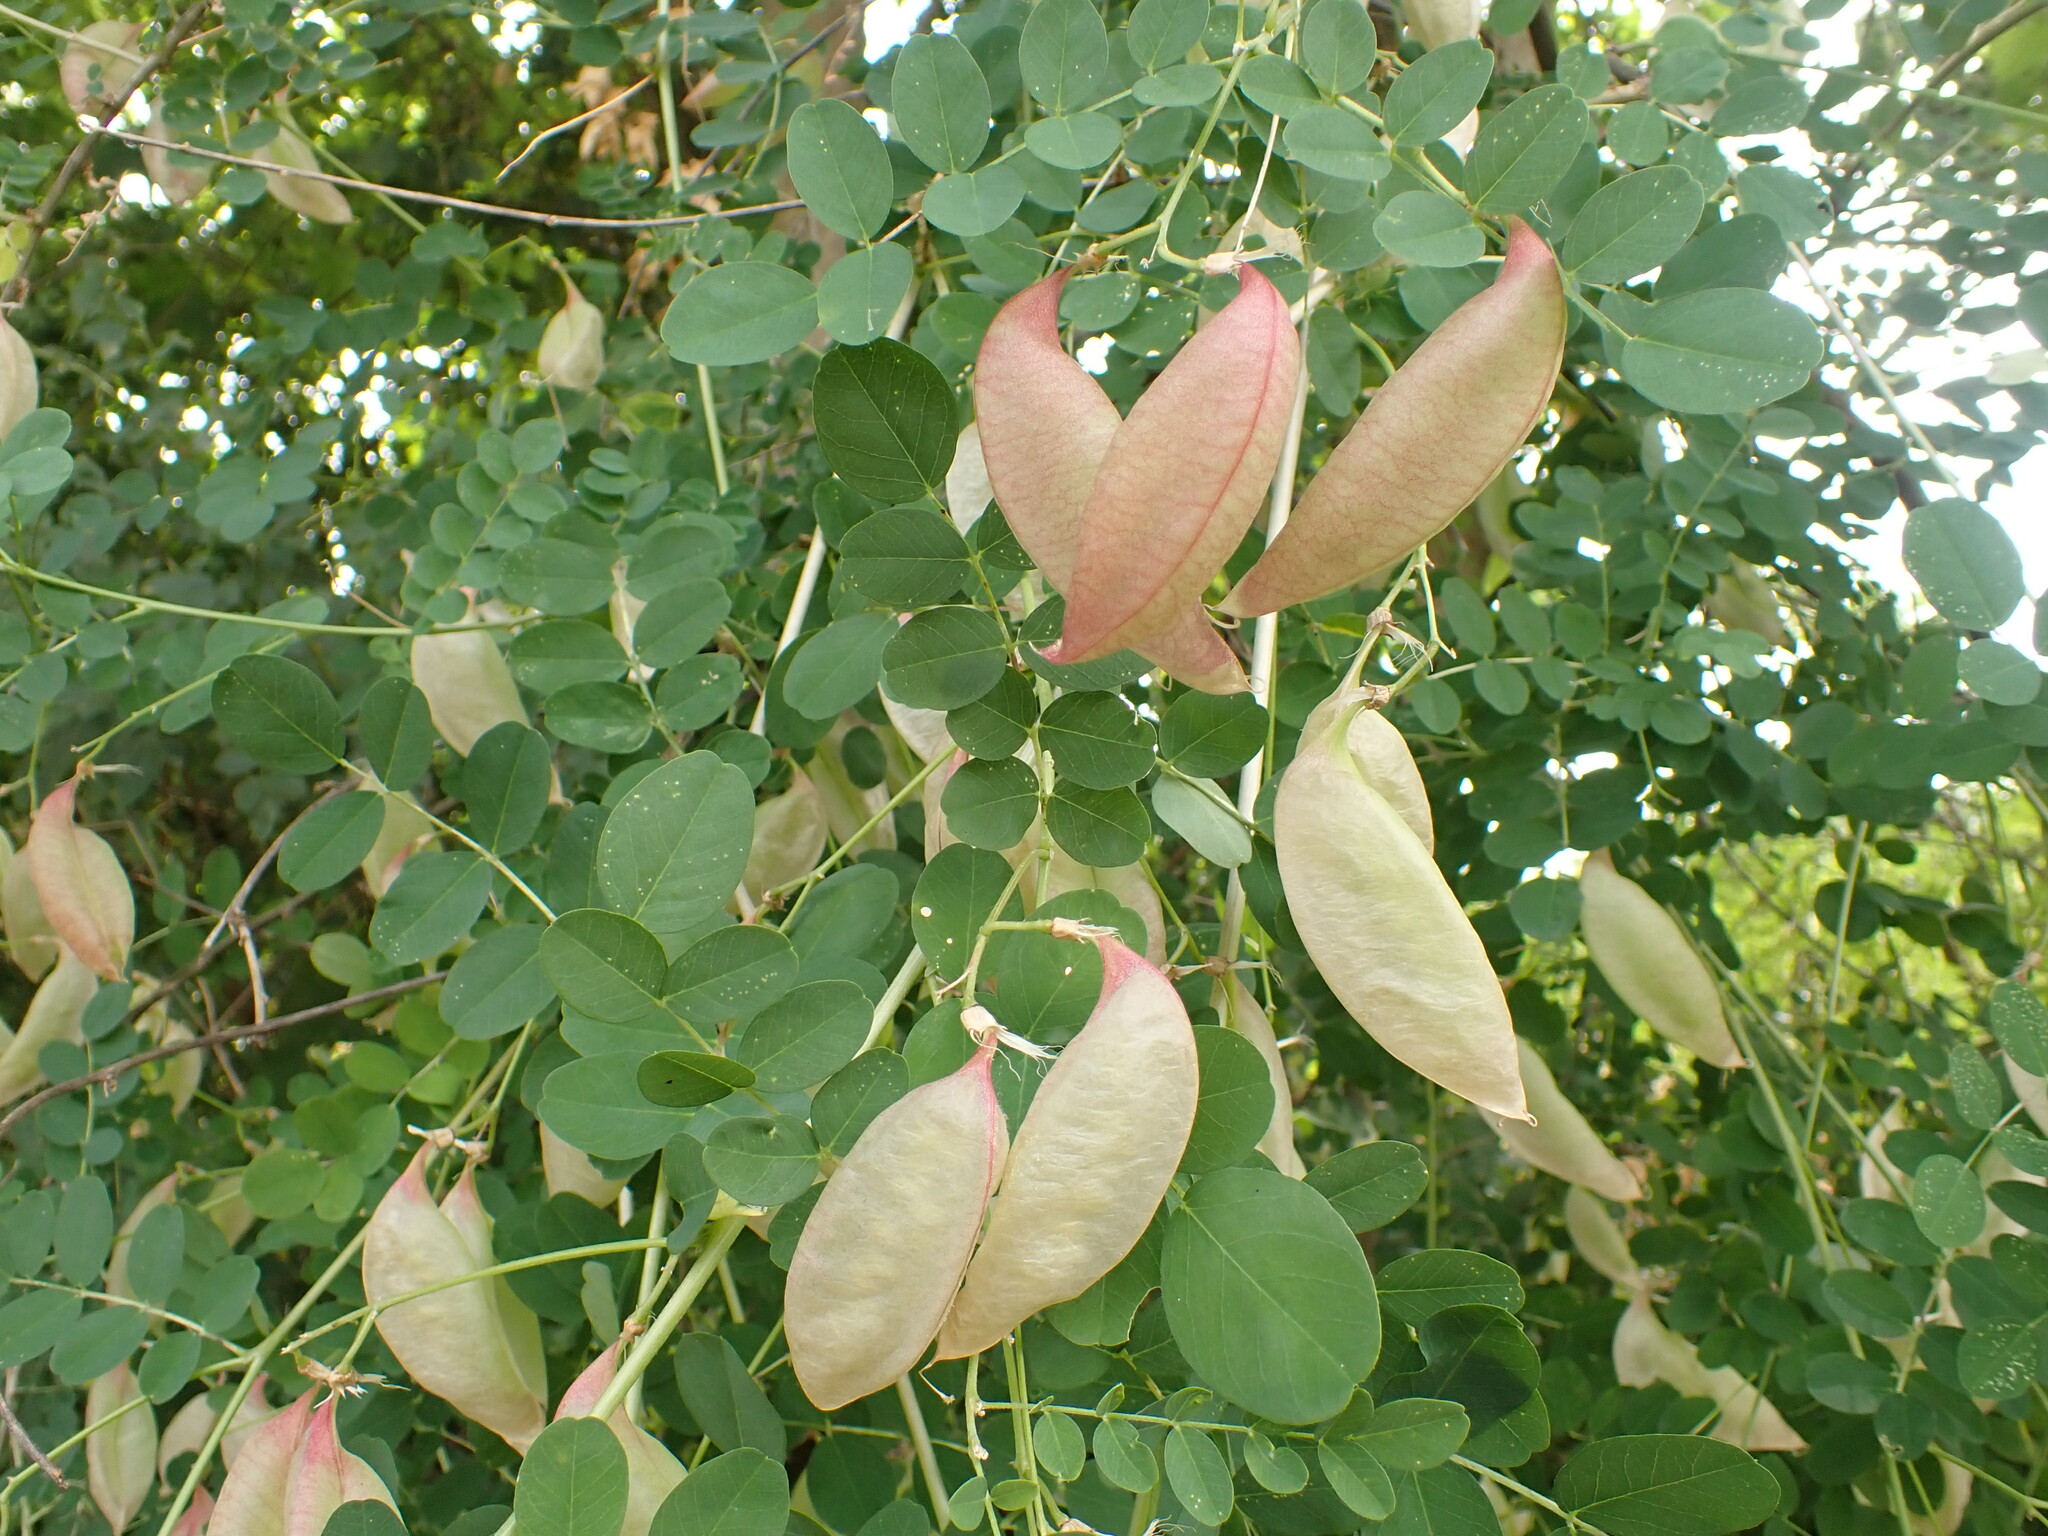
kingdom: Plantae
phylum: Tracheophyta
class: Magnoliopsida
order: Fabales
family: Fabaceae
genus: Colutea
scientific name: Colutea arborescens
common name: Bladder-senna
